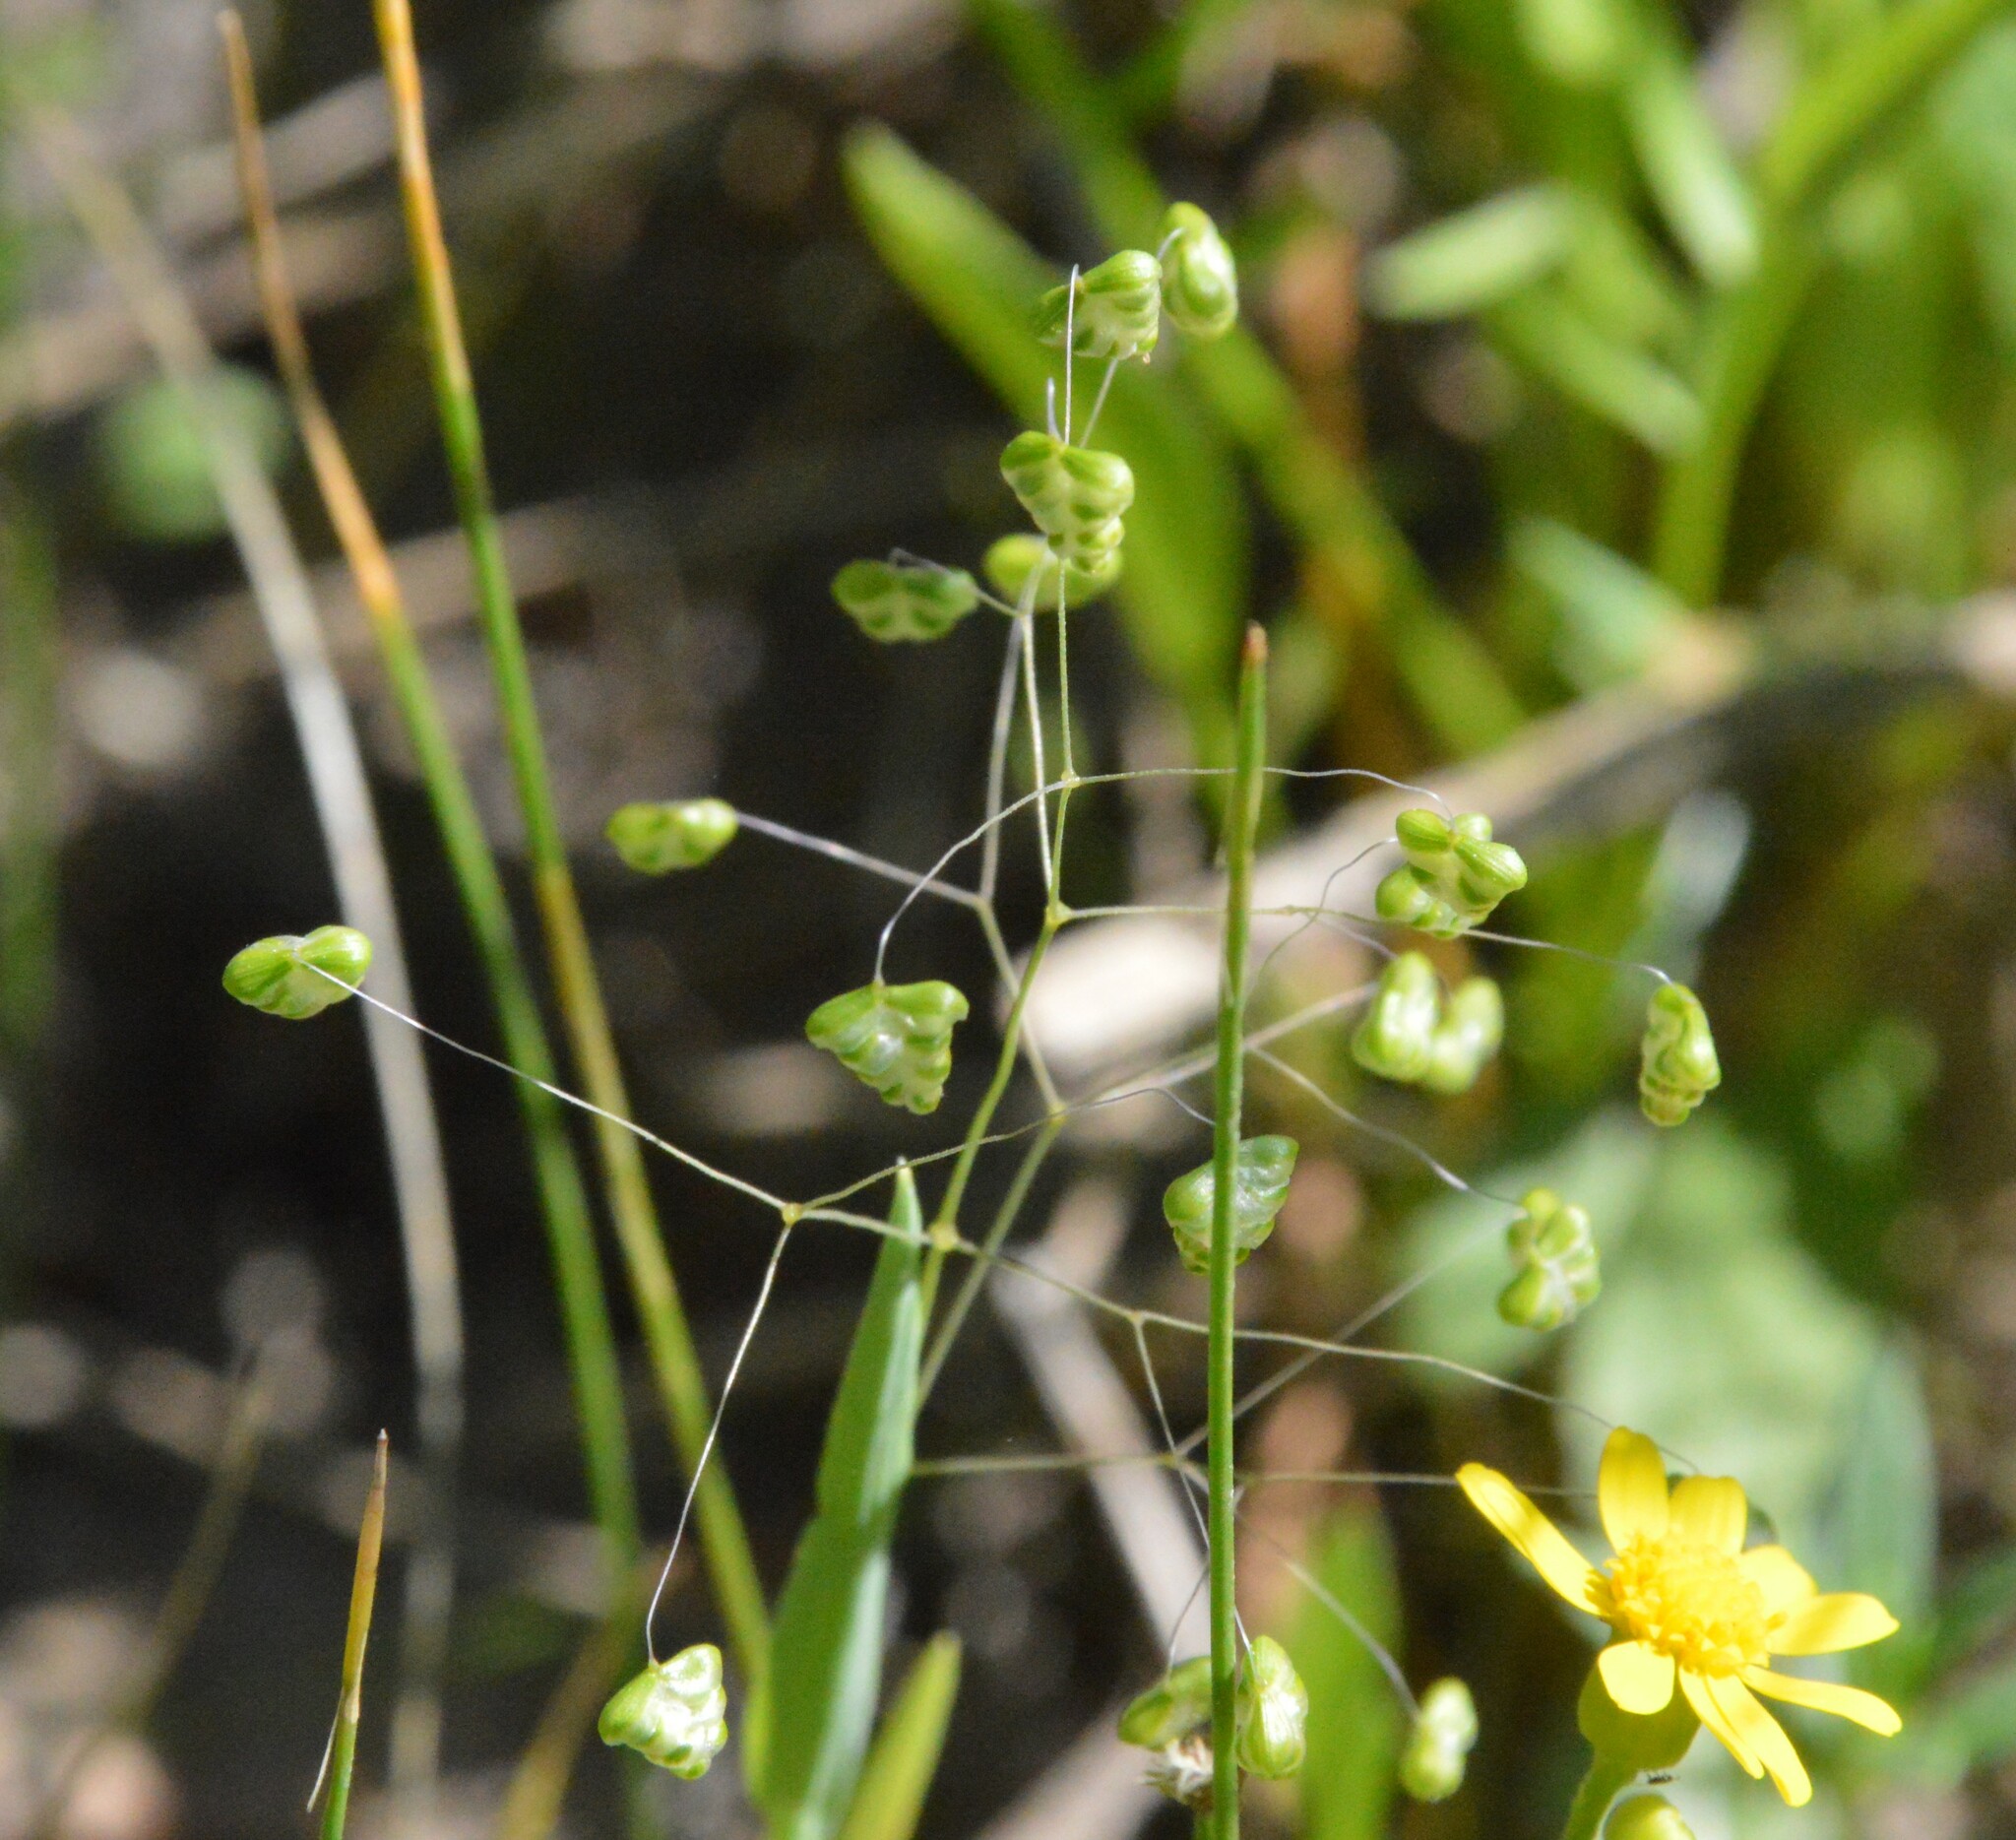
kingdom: Plantae
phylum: Tracheophyta
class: Liliopsida
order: Poales
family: Poaceae
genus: Briza
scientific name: Briza minor
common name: Lesser quaking-grass
